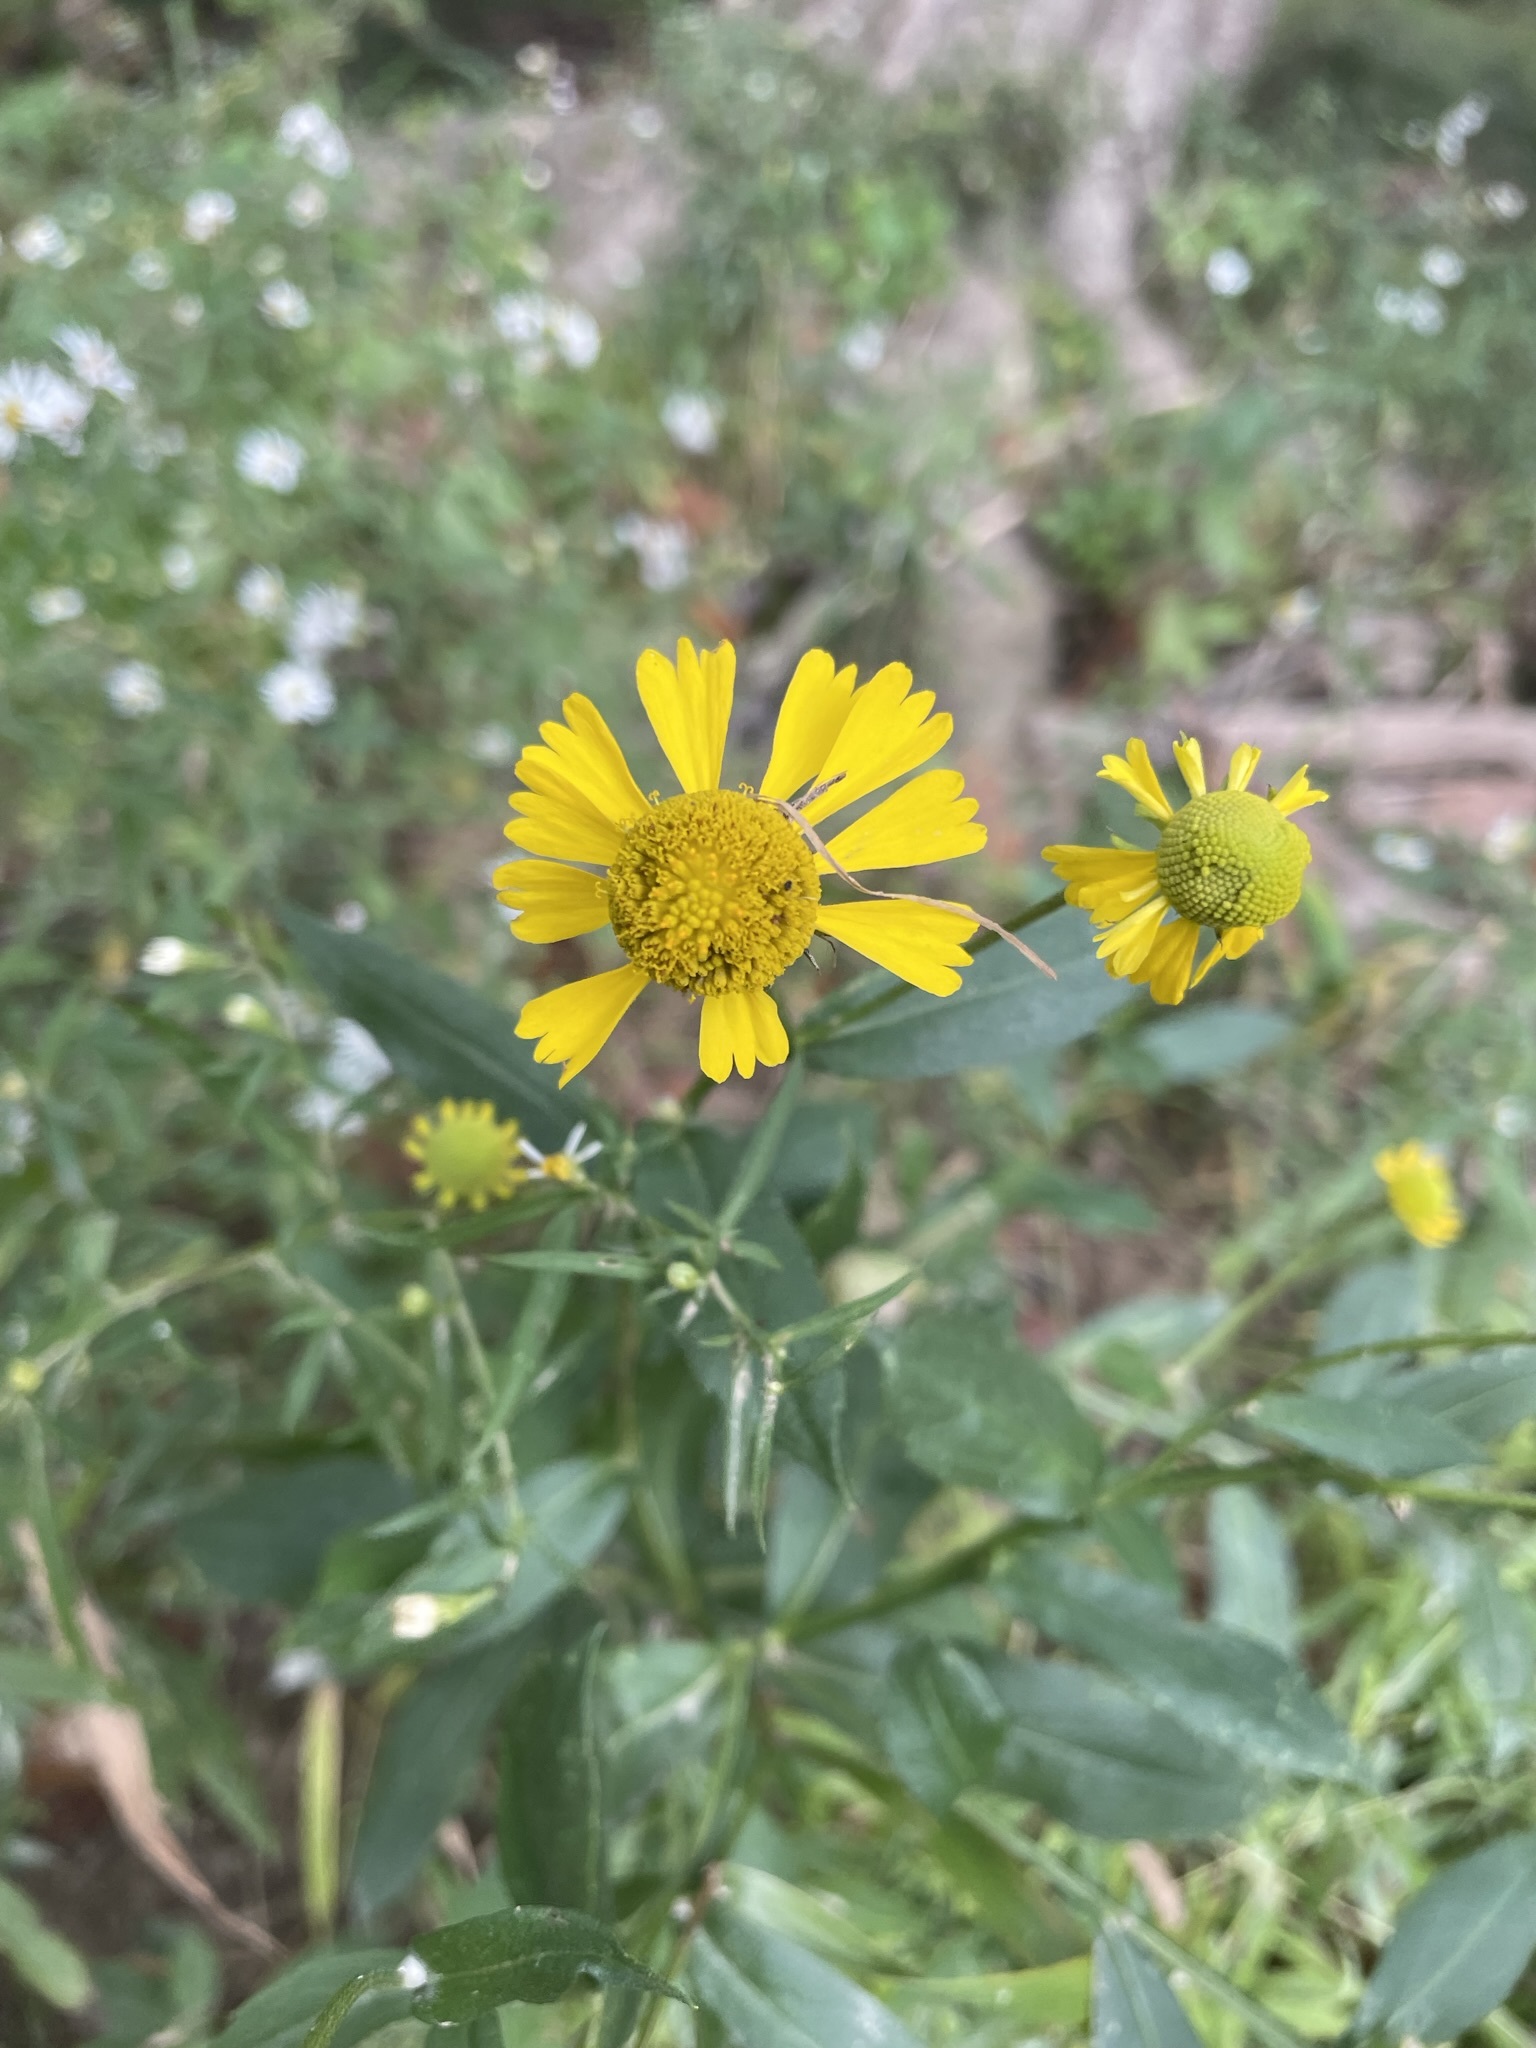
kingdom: Plantae
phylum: Tracheophyta
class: Magnoliopsida
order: Asterales
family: Asteraceae
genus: Helenium
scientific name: Helenium autumnale
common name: Sneezeweed
